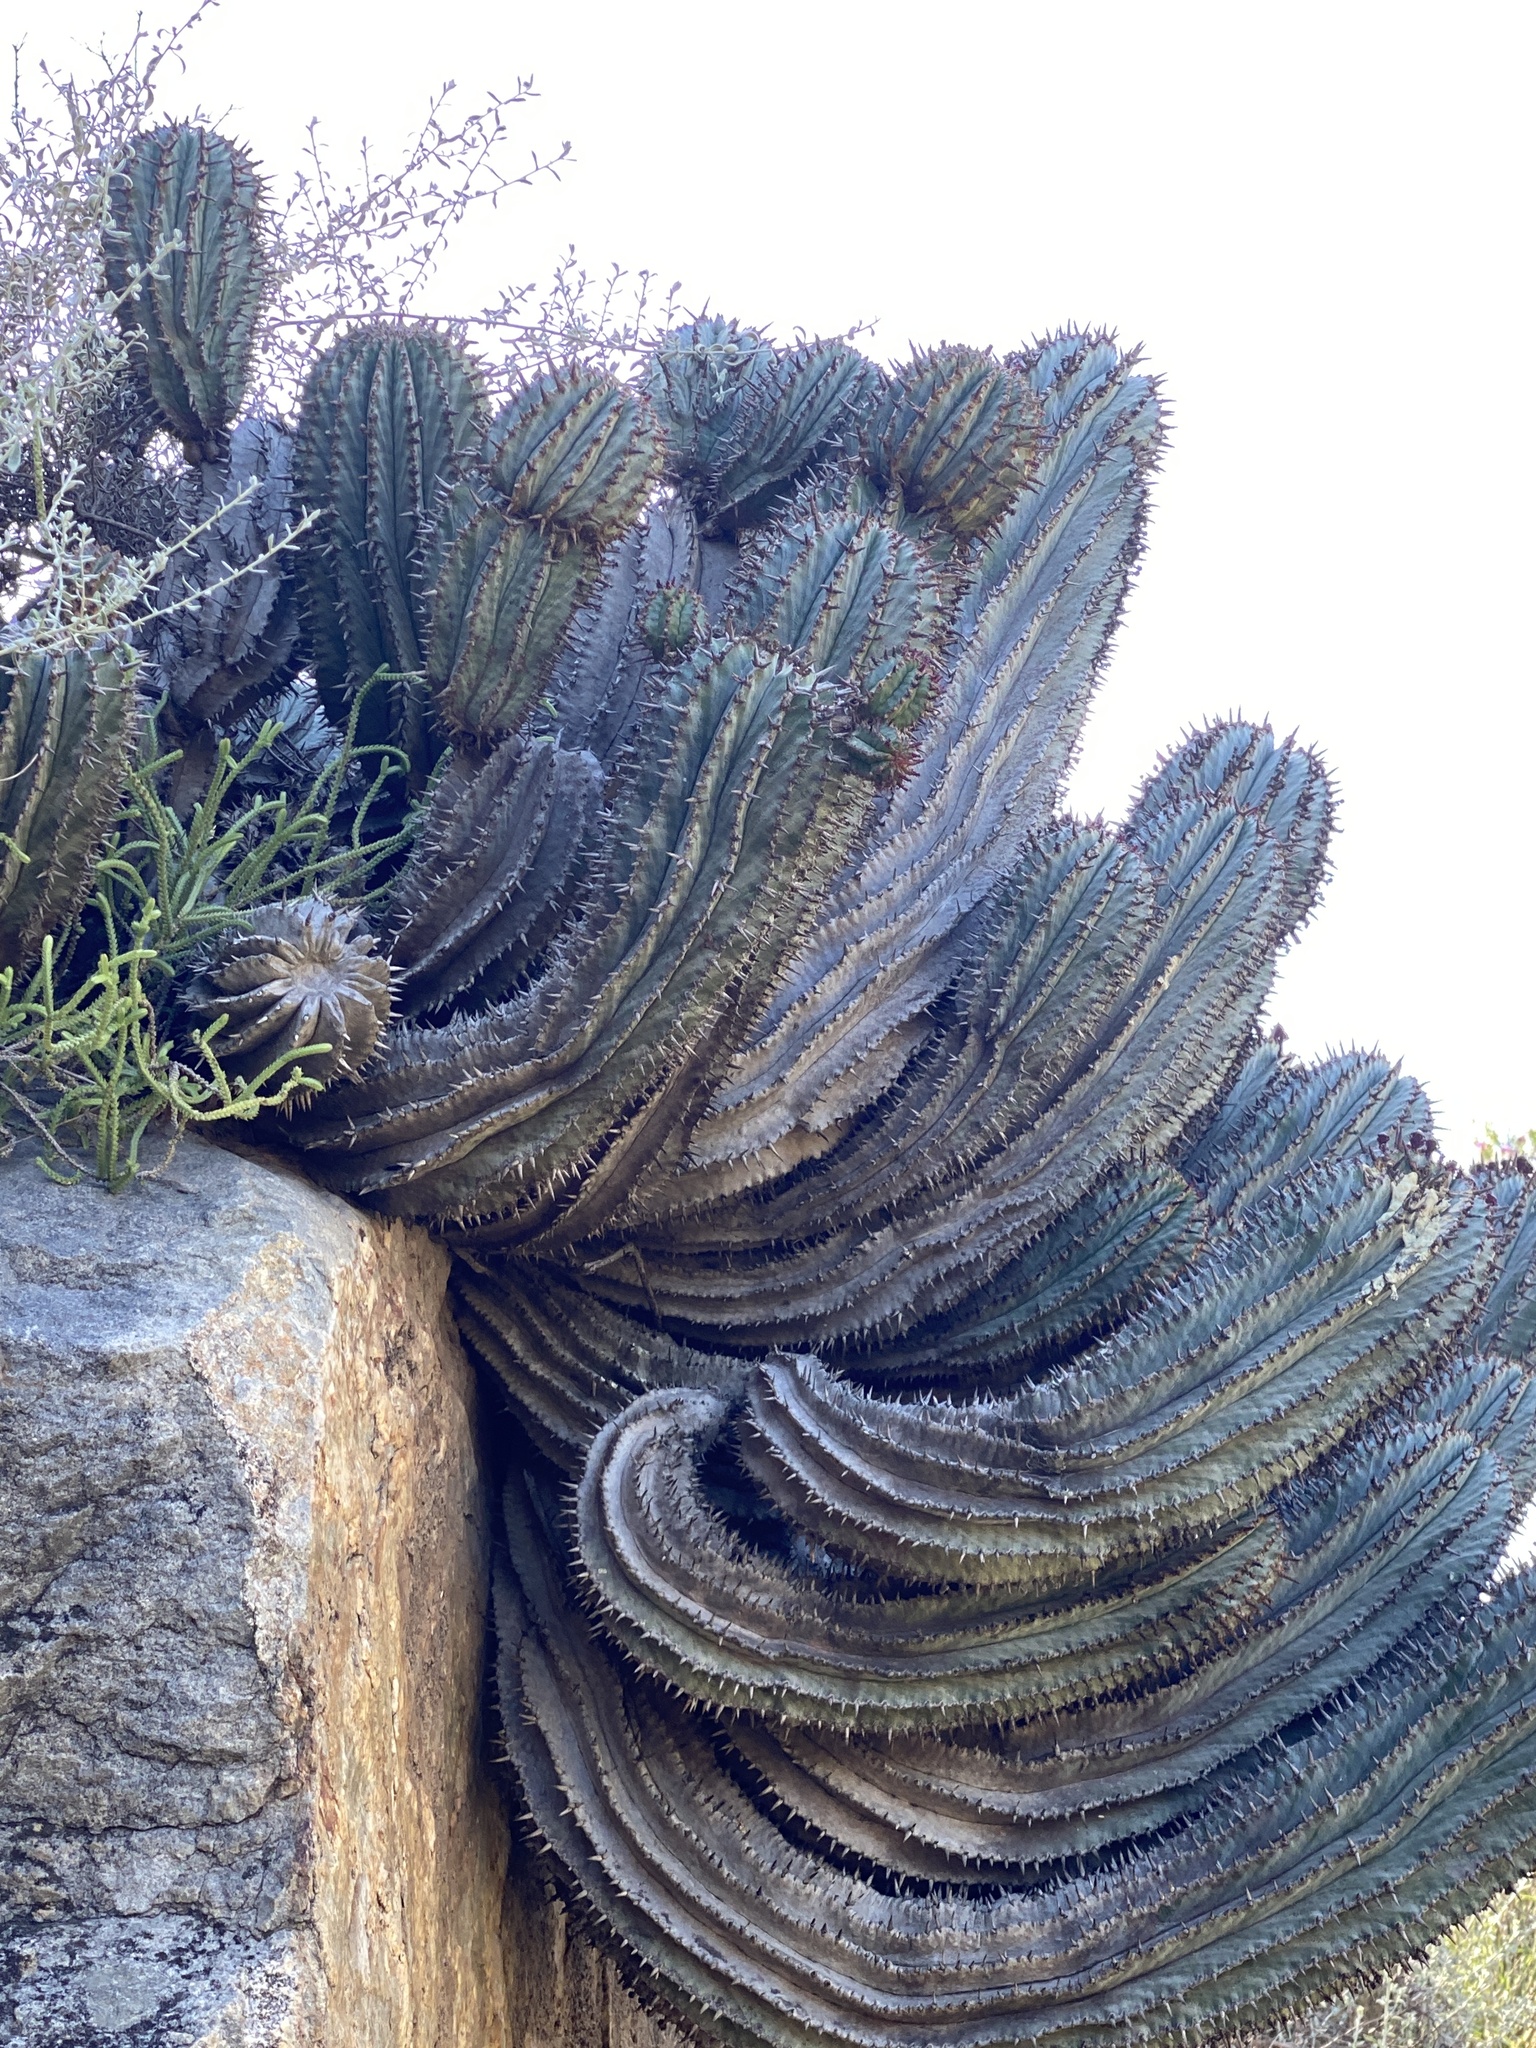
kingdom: Plantae
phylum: Tracheophyta
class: Magnoliopsida
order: Malpighiales
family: Euphorbiaceae
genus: Euphorbia
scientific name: Euphorbia polygona
